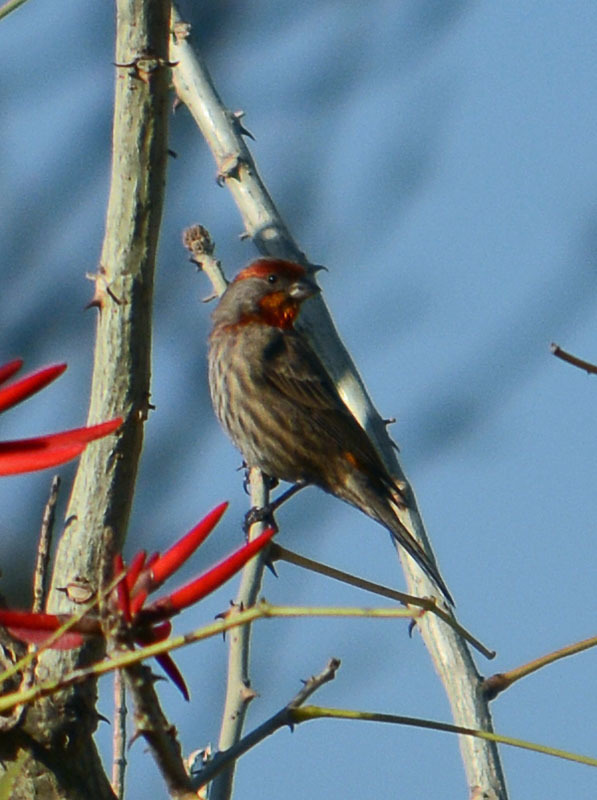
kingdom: Animalia
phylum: Chordata
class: Aves
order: Passeriformes
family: Fringillidae
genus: Haemorhous
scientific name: Haemorhous mexicanus
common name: House finch
